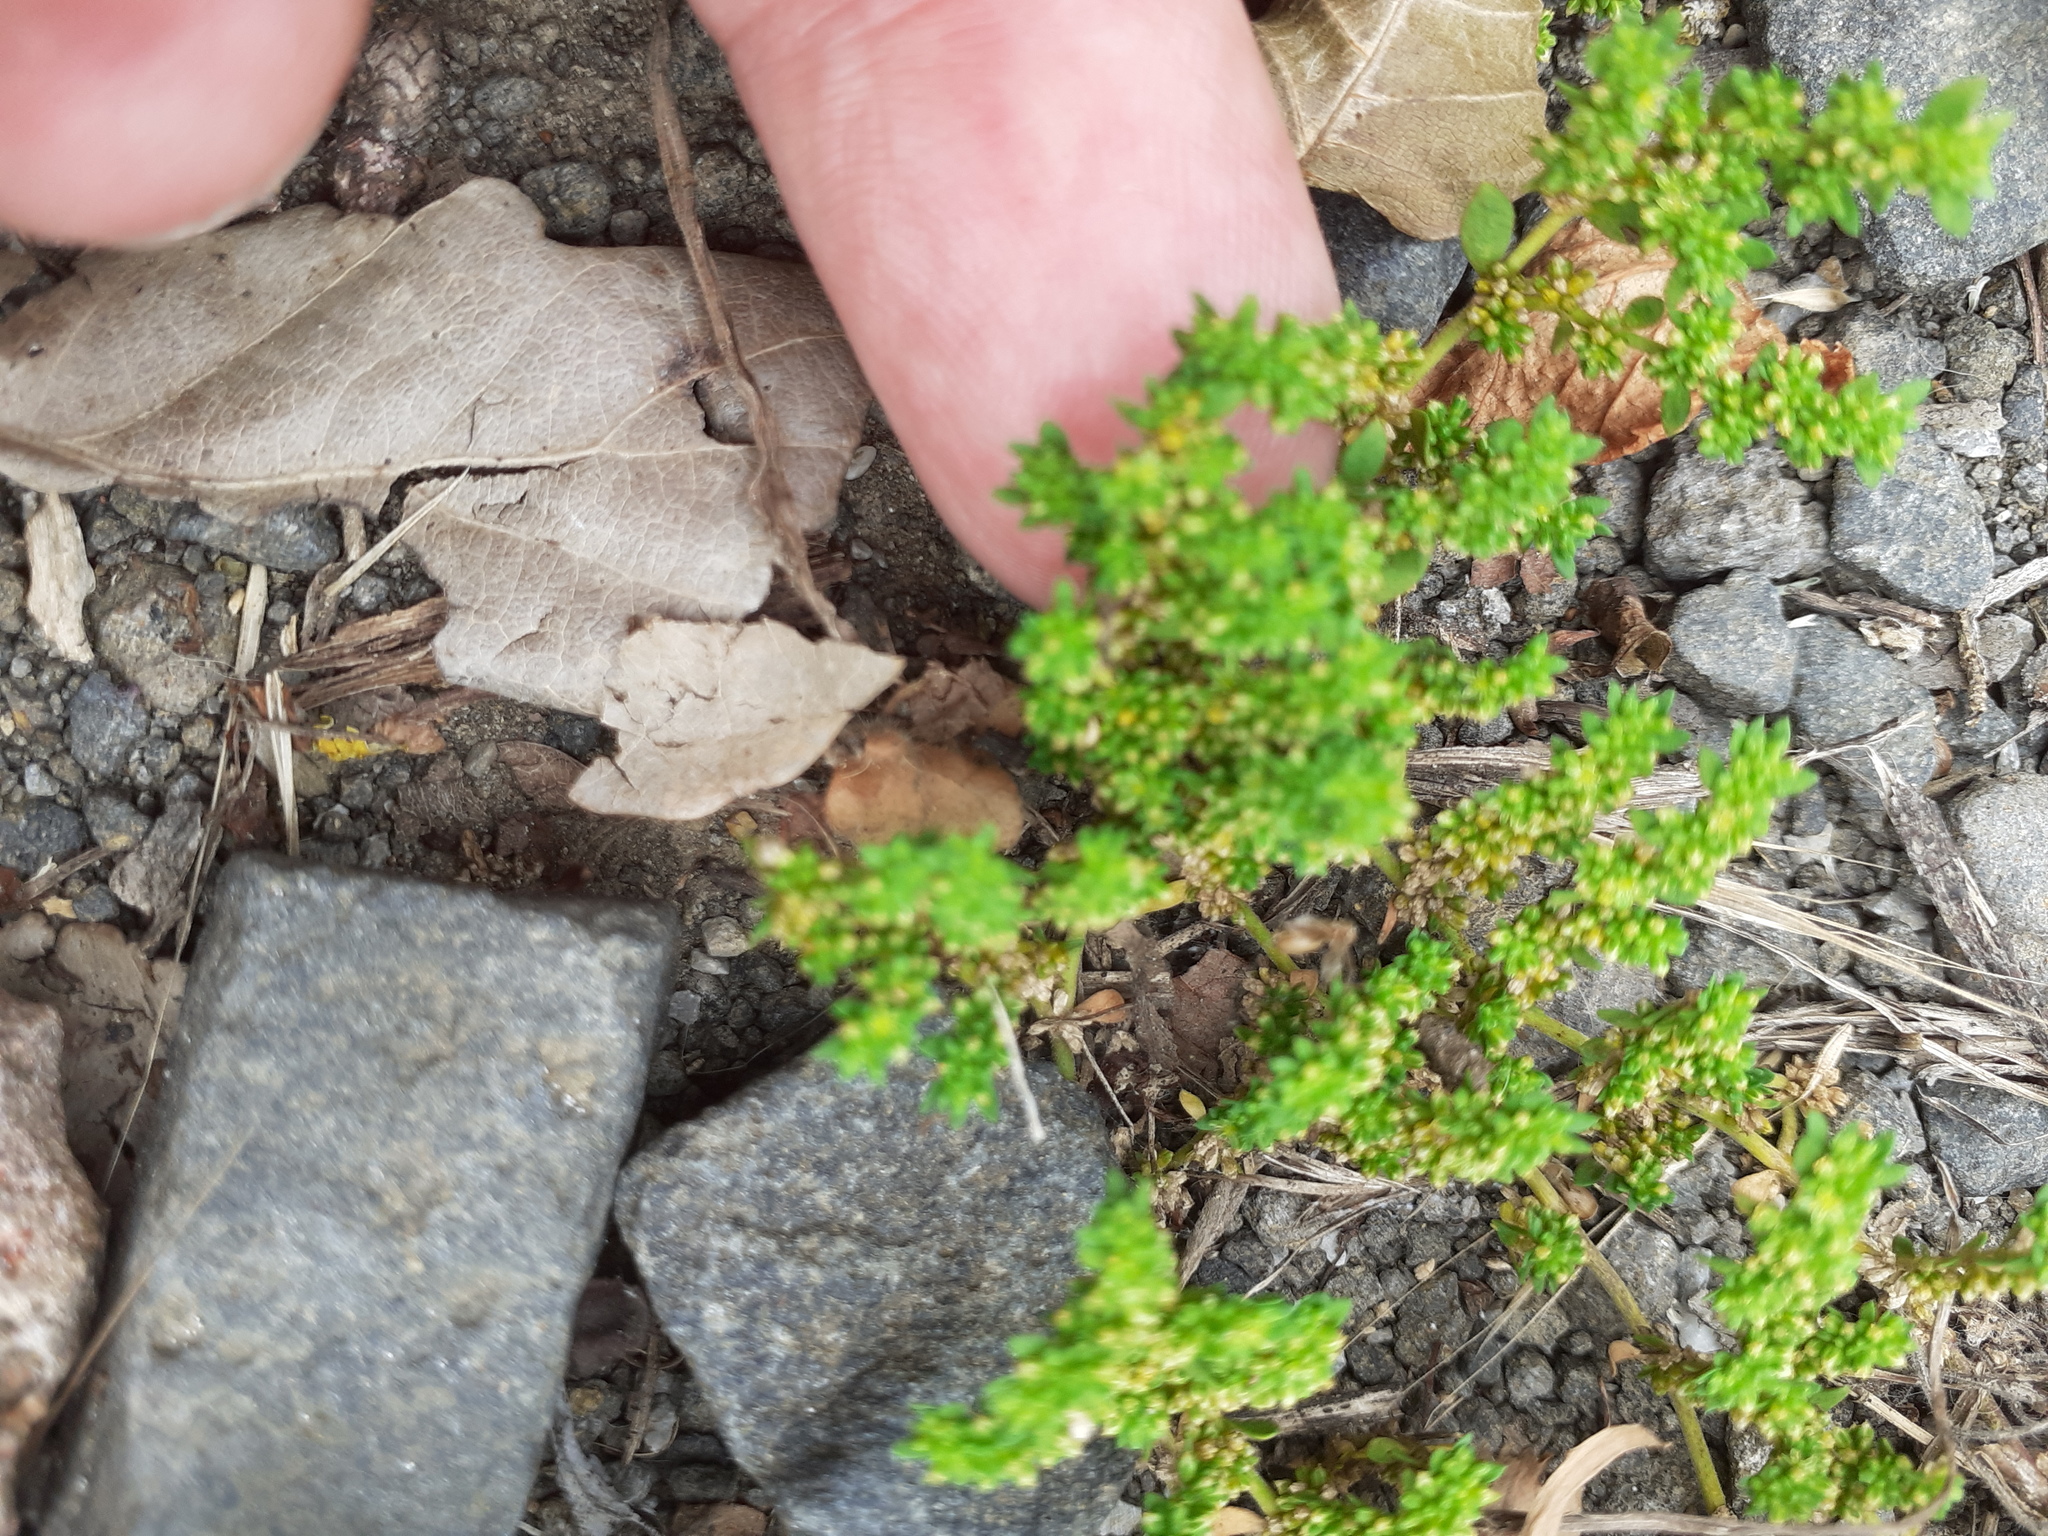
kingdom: Plantae
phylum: Tracheophyta
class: Magnoliopsida
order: Caryophyllales
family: Caryophyllaceae
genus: Herniaria
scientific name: Herniaria glabra
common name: Smooth rupturewort
